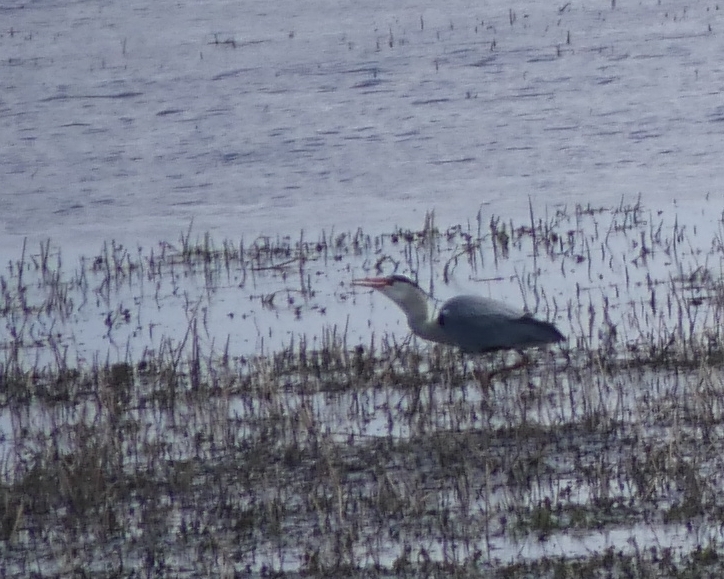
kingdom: Animalia
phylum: Chordata
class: Aves
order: Pelecaniformes
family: Ardeidae
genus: Ardea
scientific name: Ardea cinerea
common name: Grey heron
